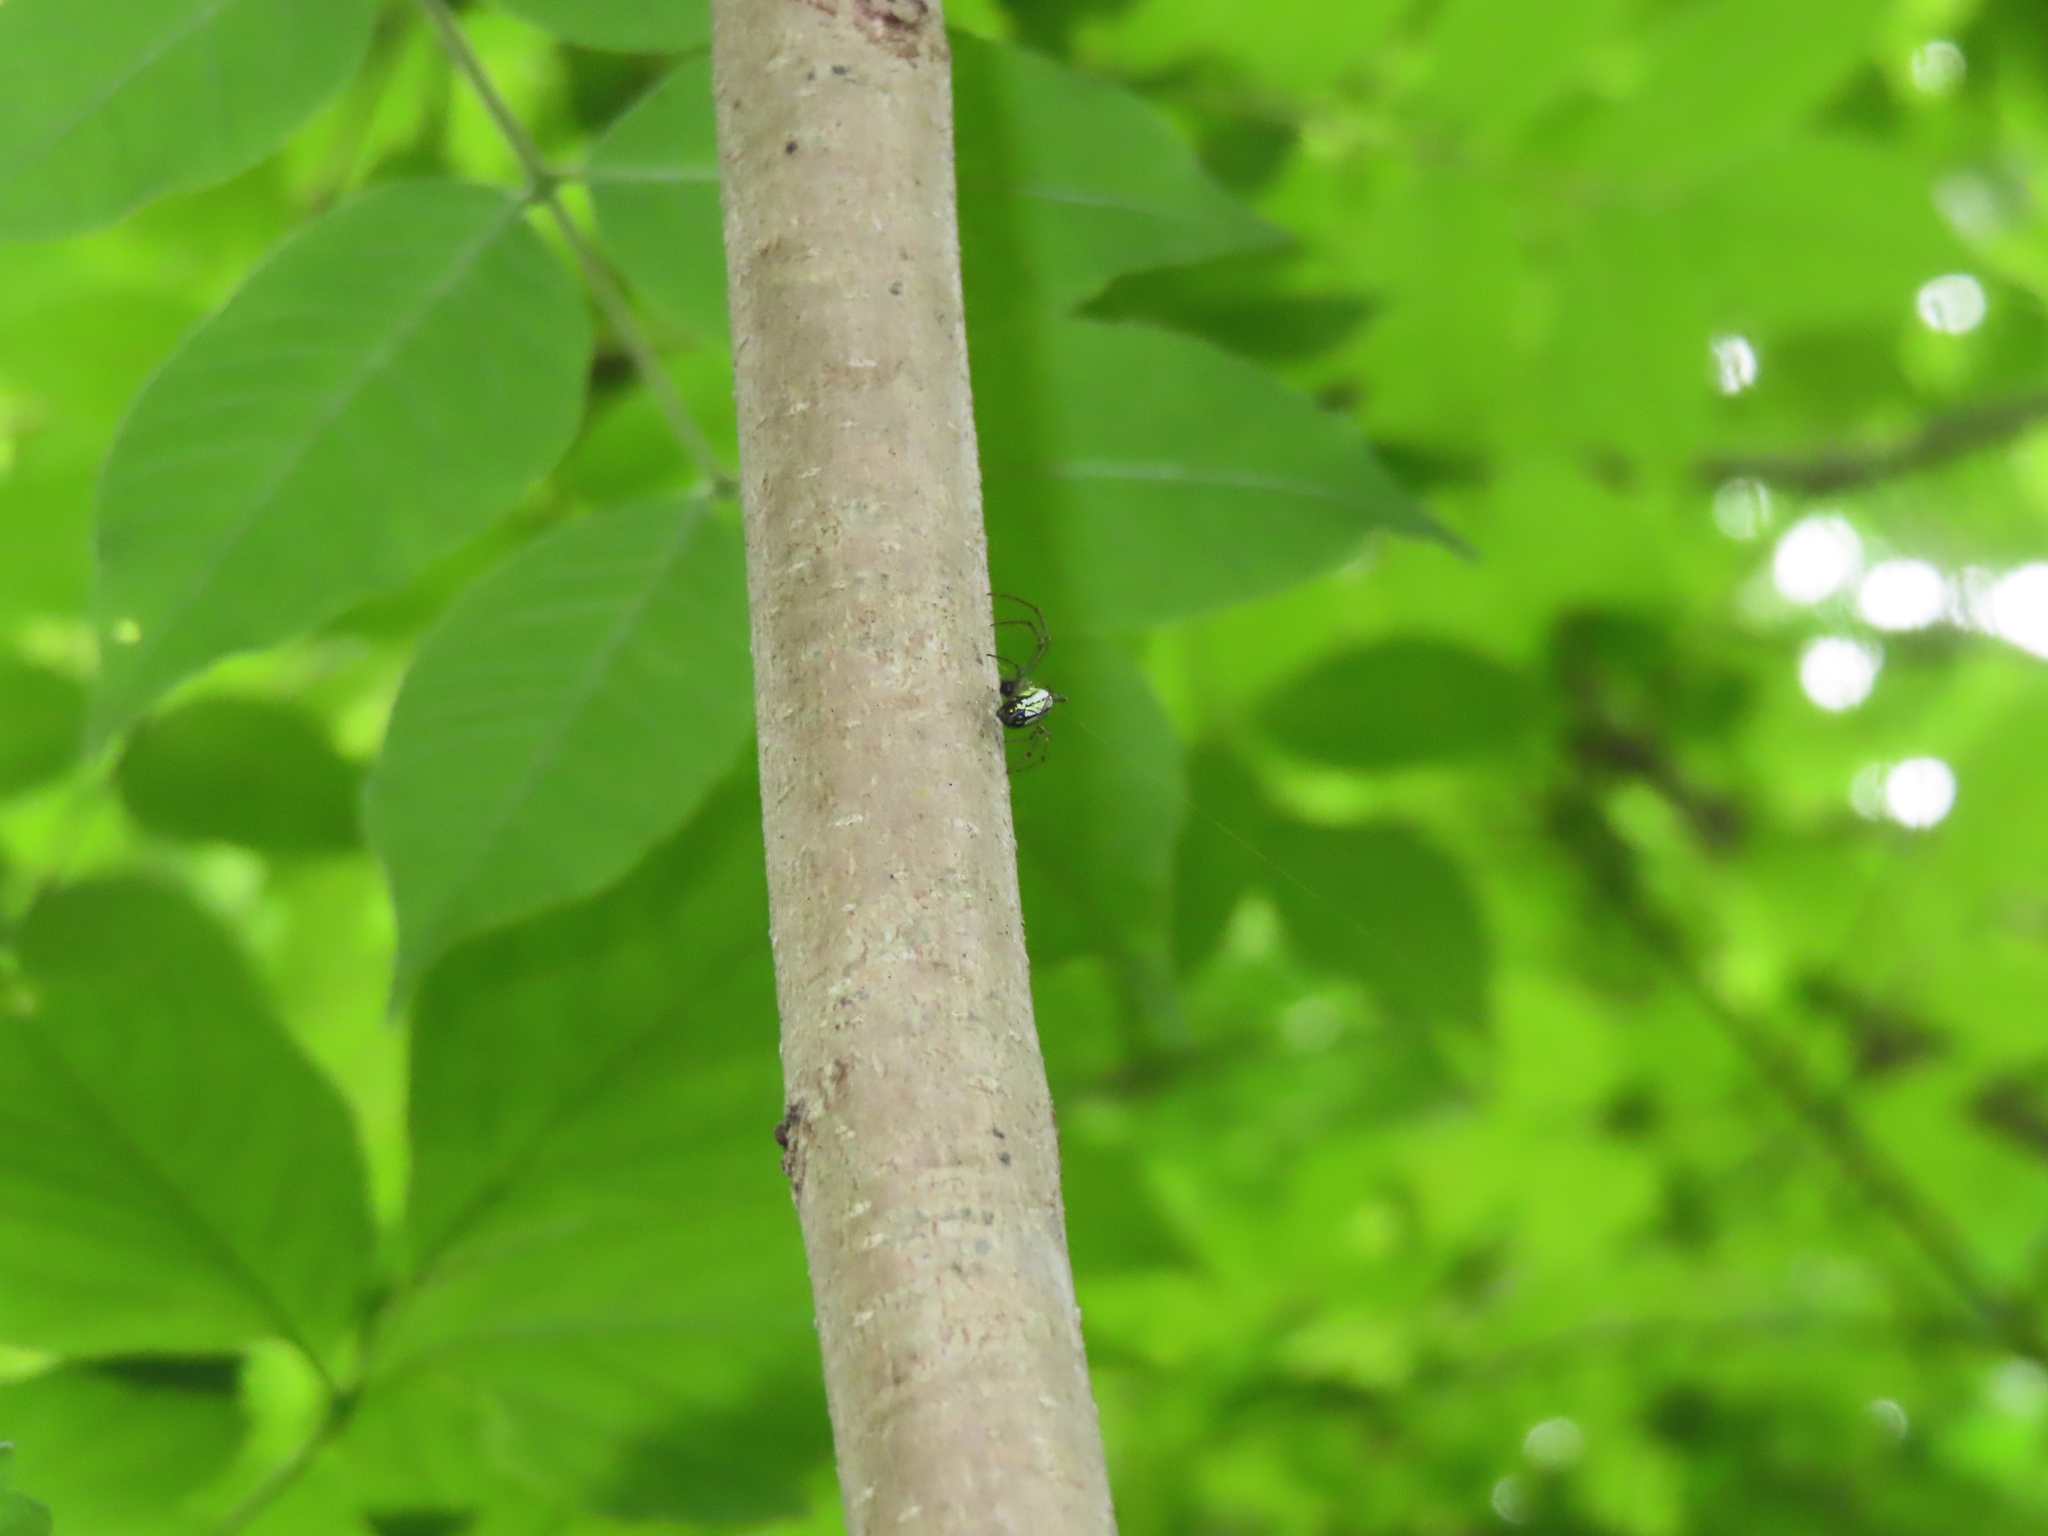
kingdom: Animalia
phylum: Arthropoda
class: Arachnida
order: Araneae
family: Tetragnathidae
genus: Leucauge
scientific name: Leucauge venusta
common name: Longjawed orb weavers
